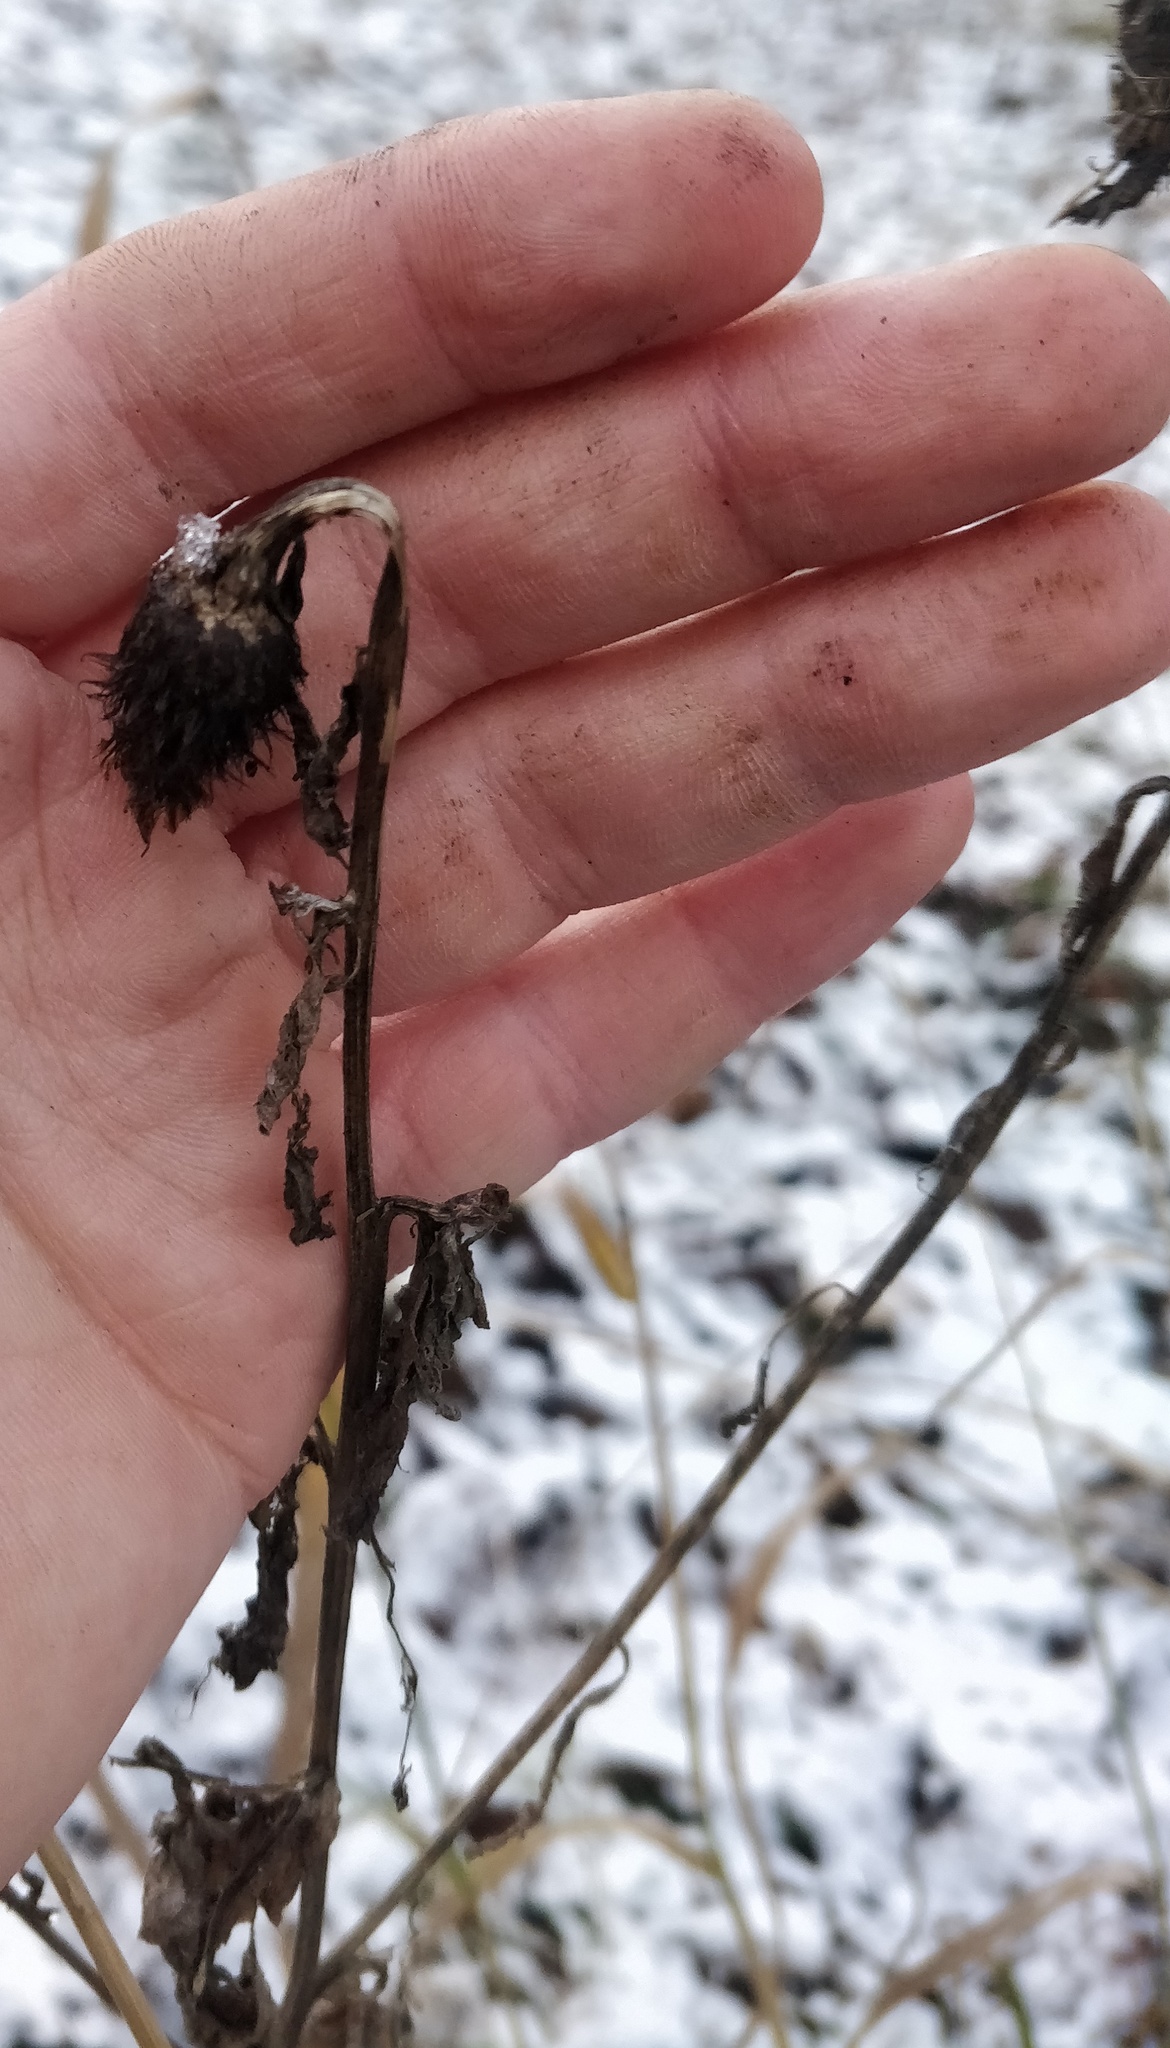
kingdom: Plantae
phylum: Tracheophyta
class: Magnoliopsida
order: Asterales
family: Asteraceae
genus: Centaurea
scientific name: Centaurea phrygia
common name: Wig knapweed
